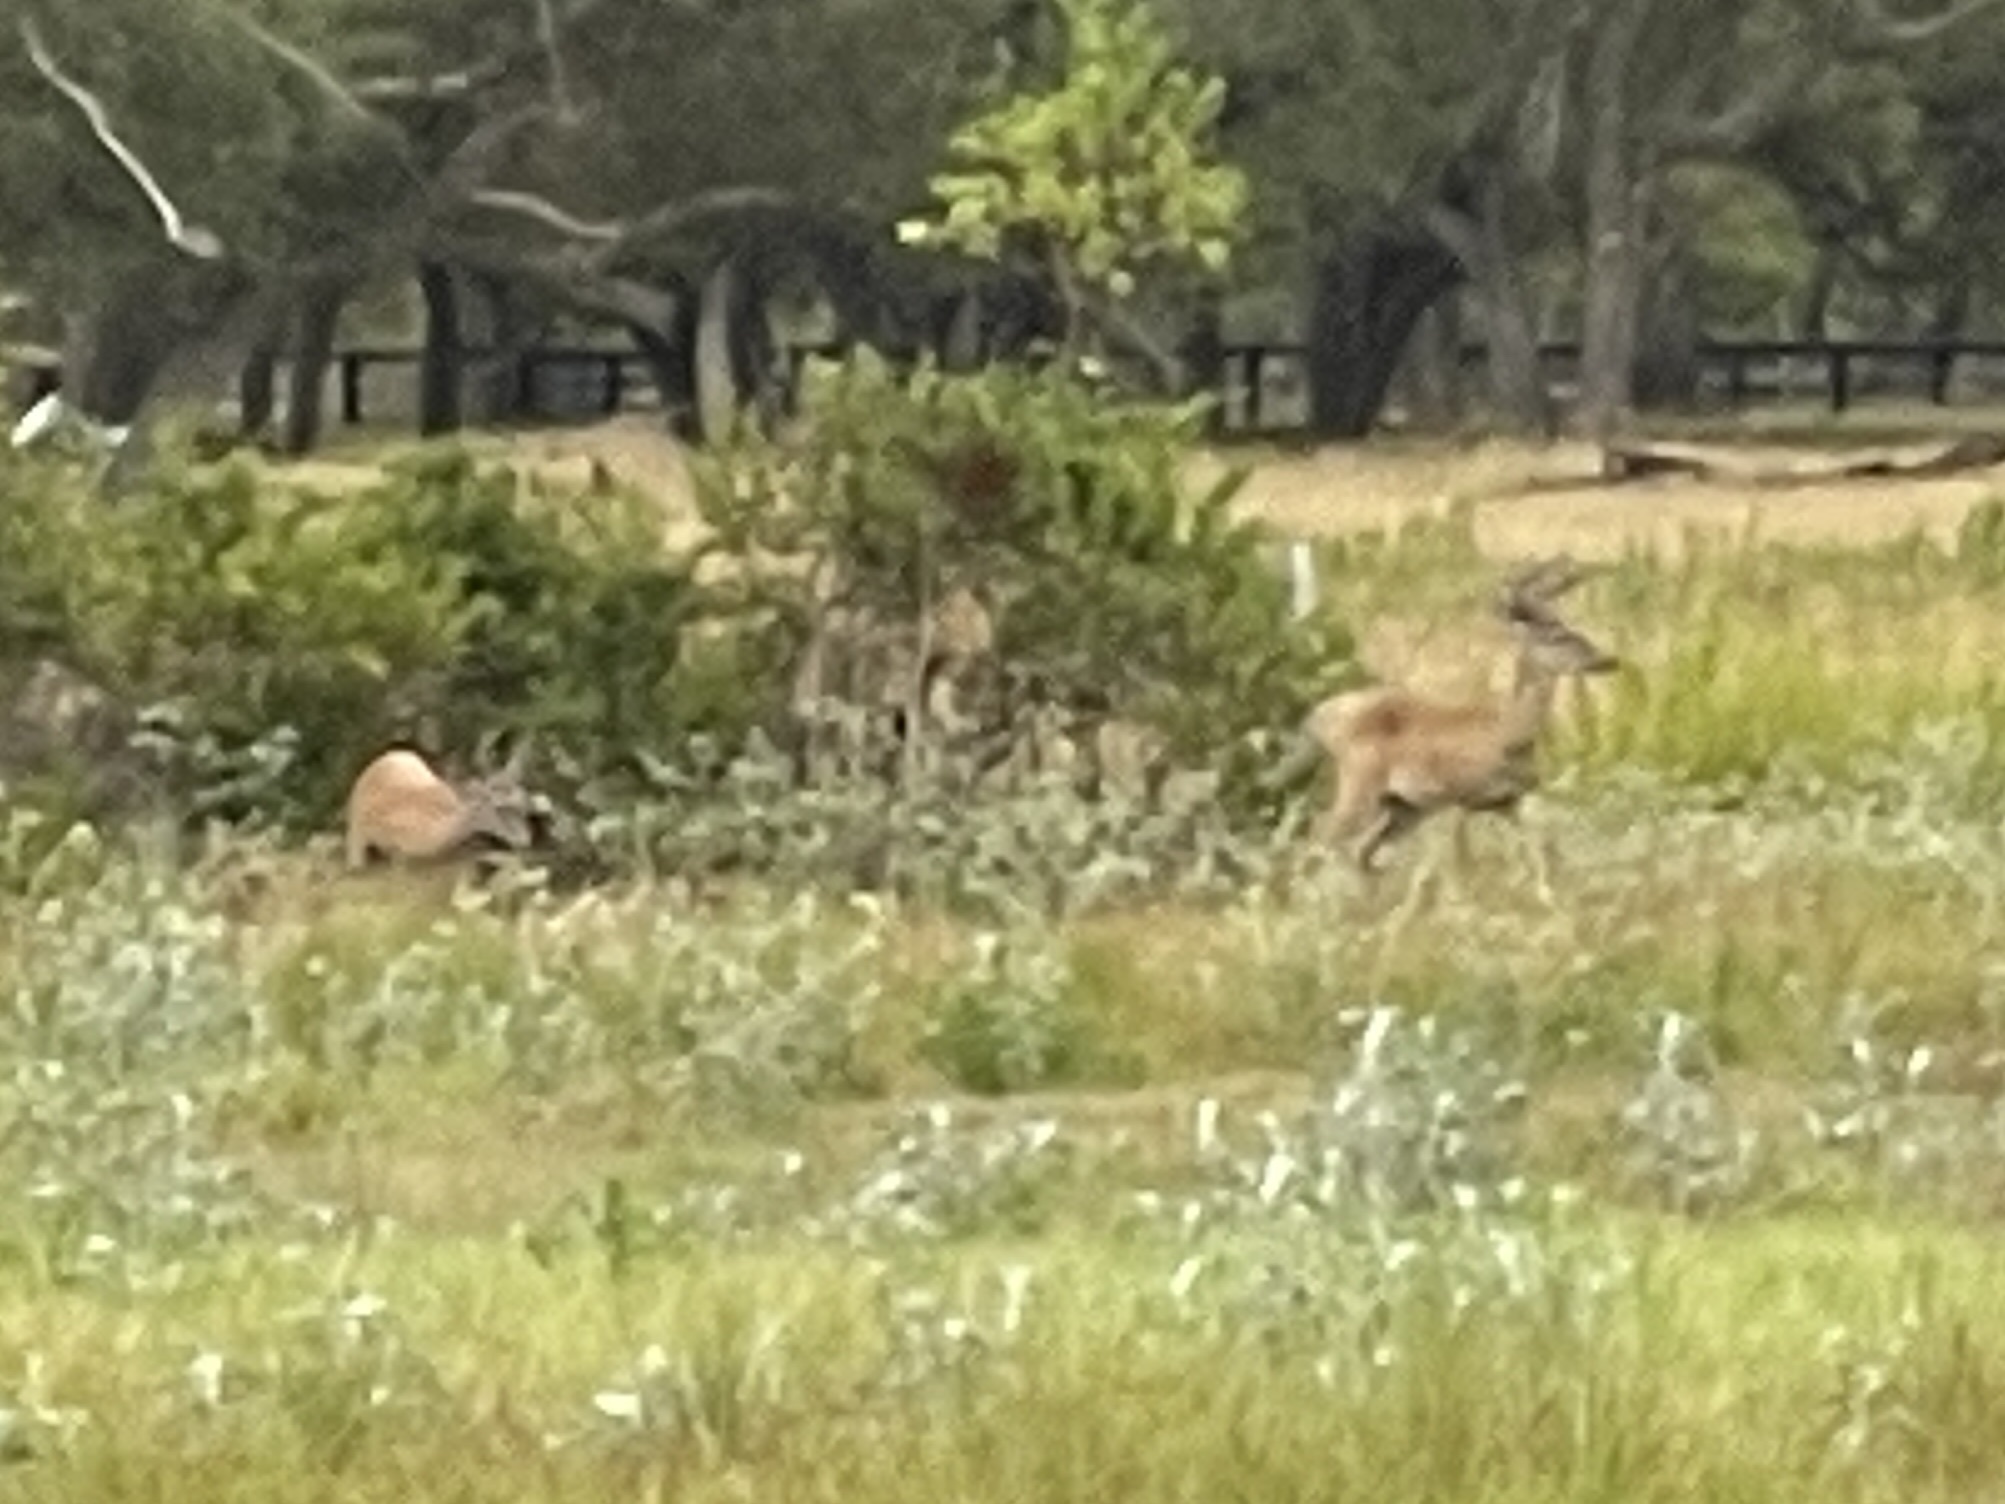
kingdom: Animalia
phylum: Chordata
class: Mammalia
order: Artiodactyla
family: Cervidae
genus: Odocoileus
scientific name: Odocoileus virginianus
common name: White-tailed deer
